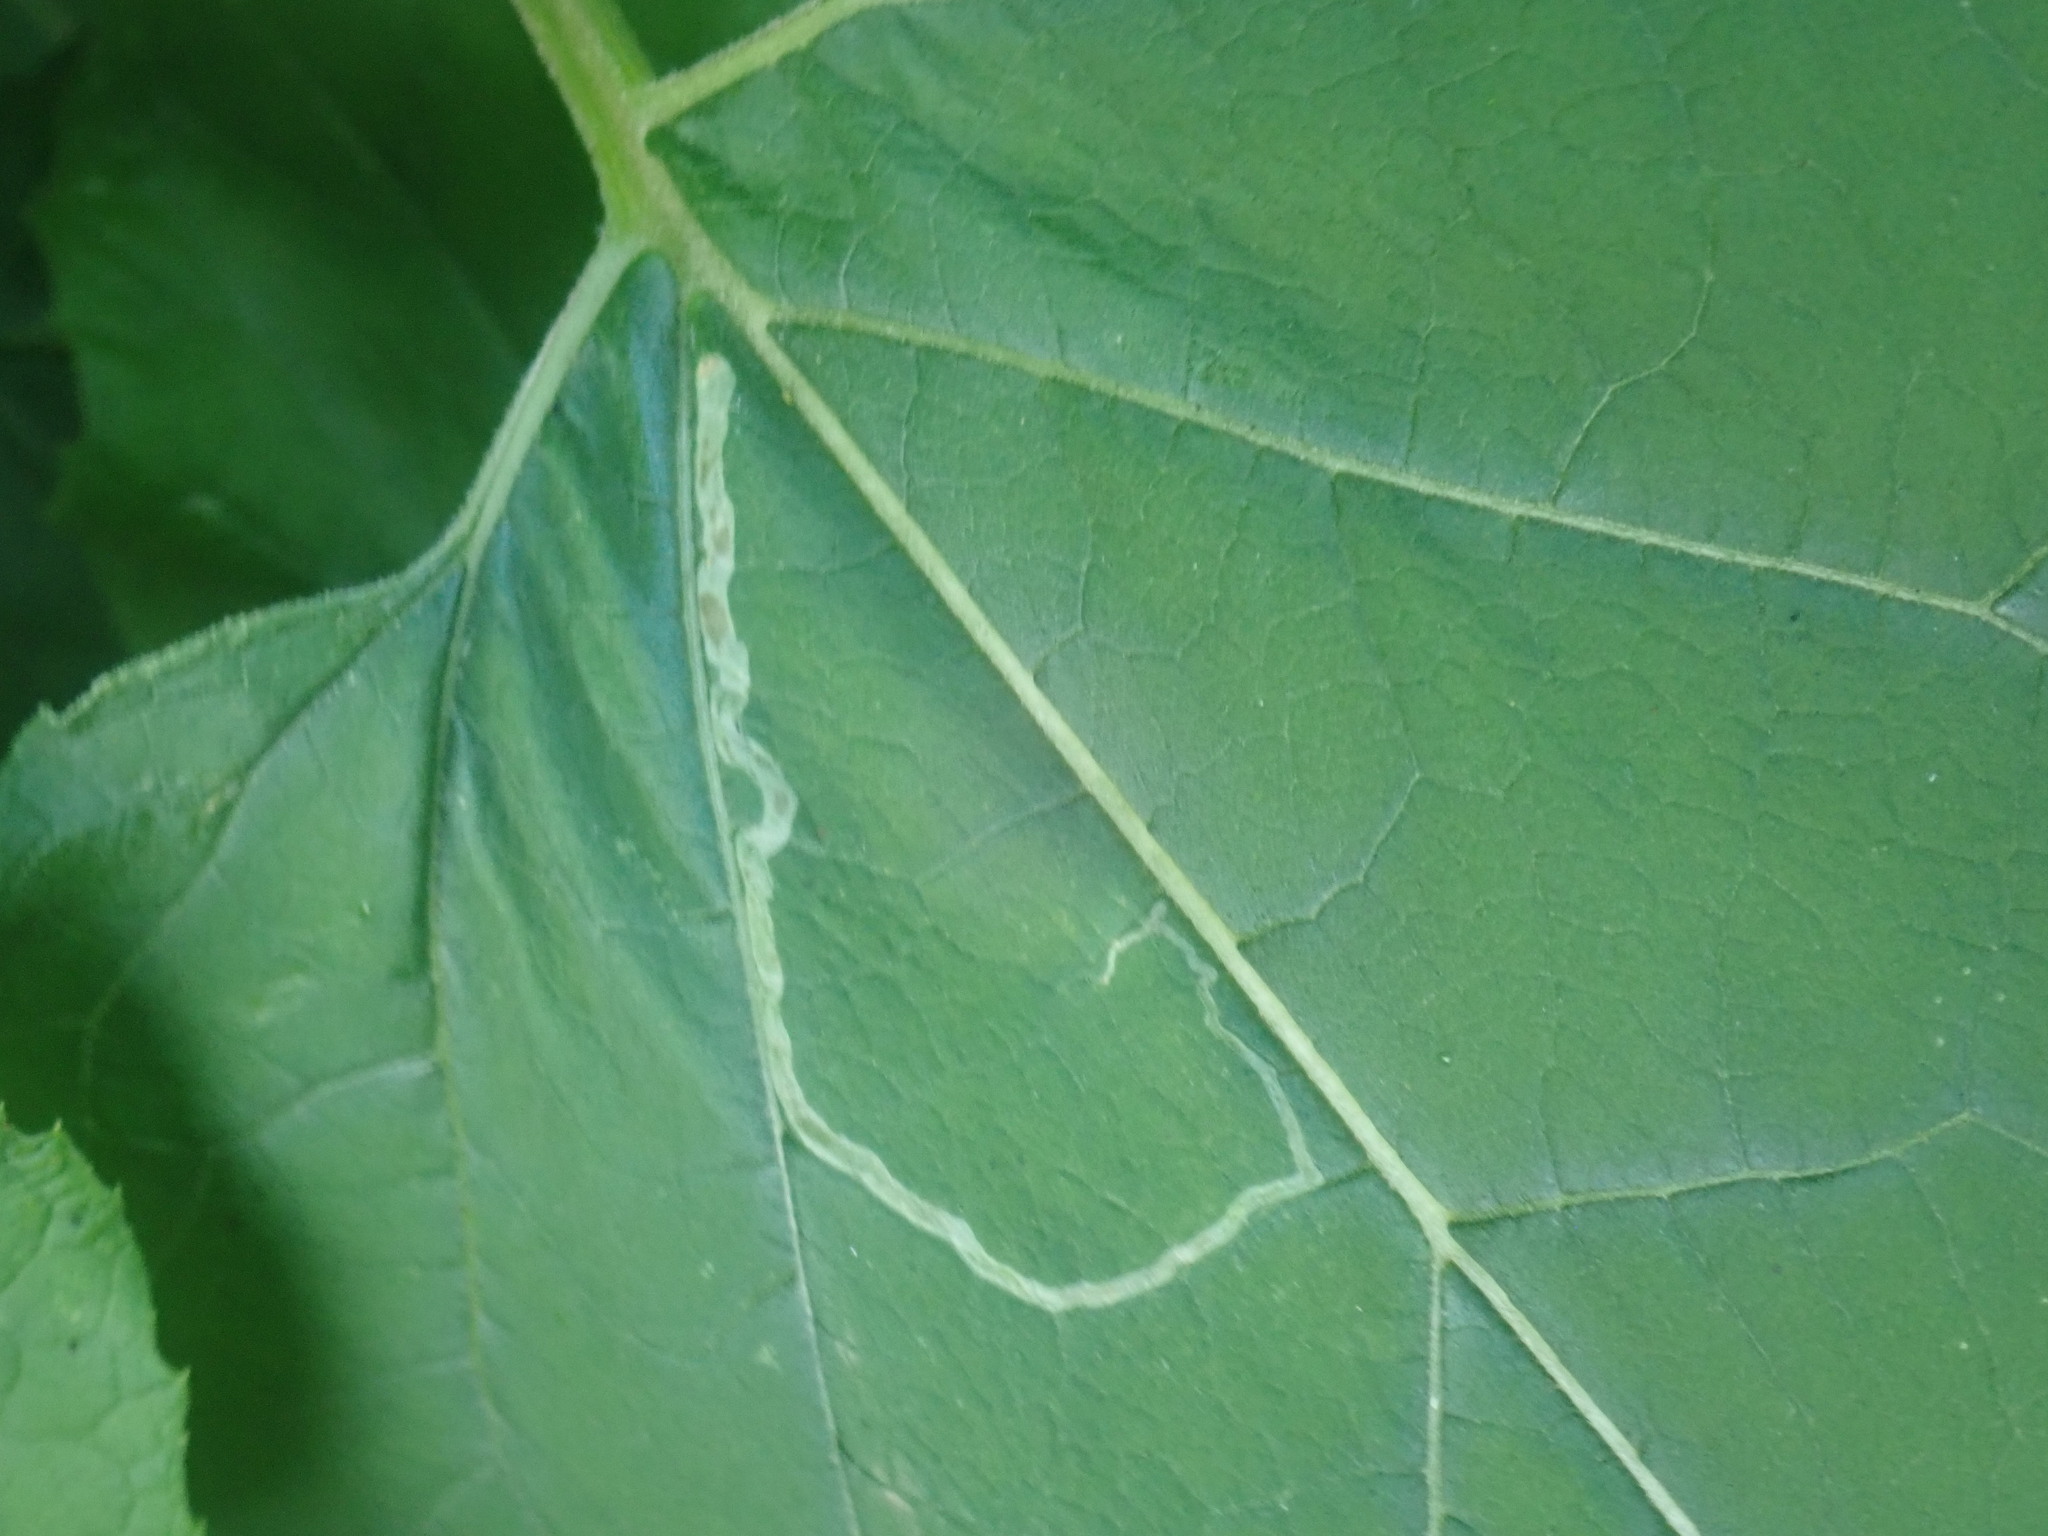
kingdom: Animalia
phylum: Arthropoda
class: Insecta
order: Diptera
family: Agromyzidae
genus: Liriomyza
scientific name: Liriomyza arctii
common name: Burdock leafminer
